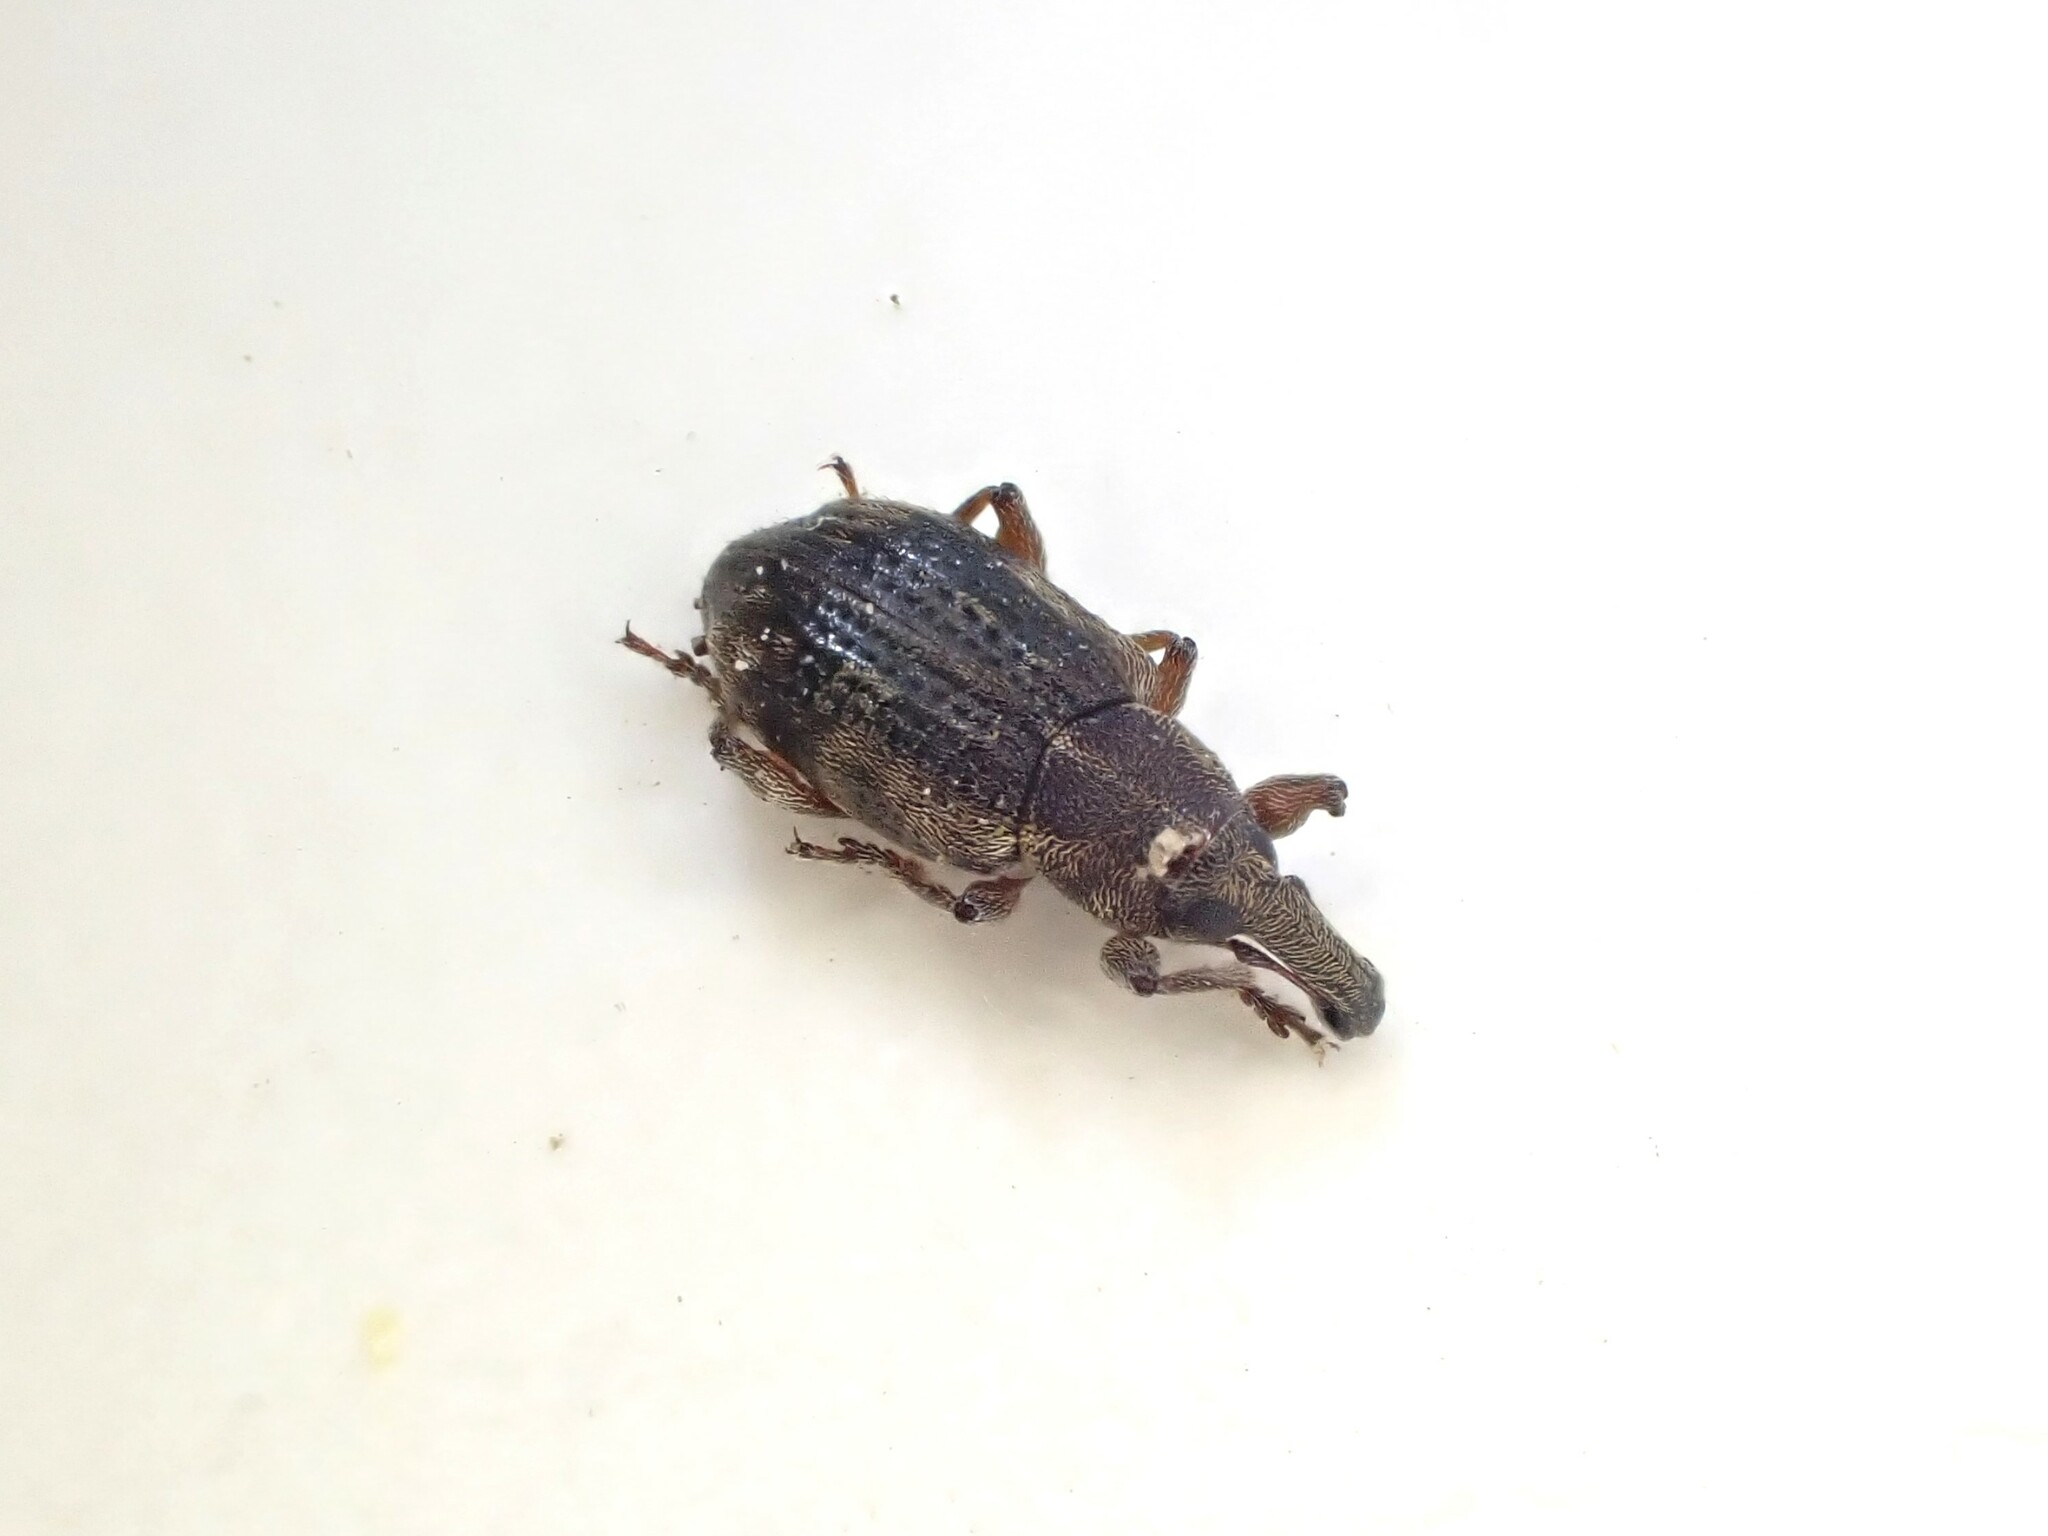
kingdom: Animalia
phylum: Arthropoda
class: Insecta
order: Coleoptera
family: Curculionidae
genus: Steriphus
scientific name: Steriphus
